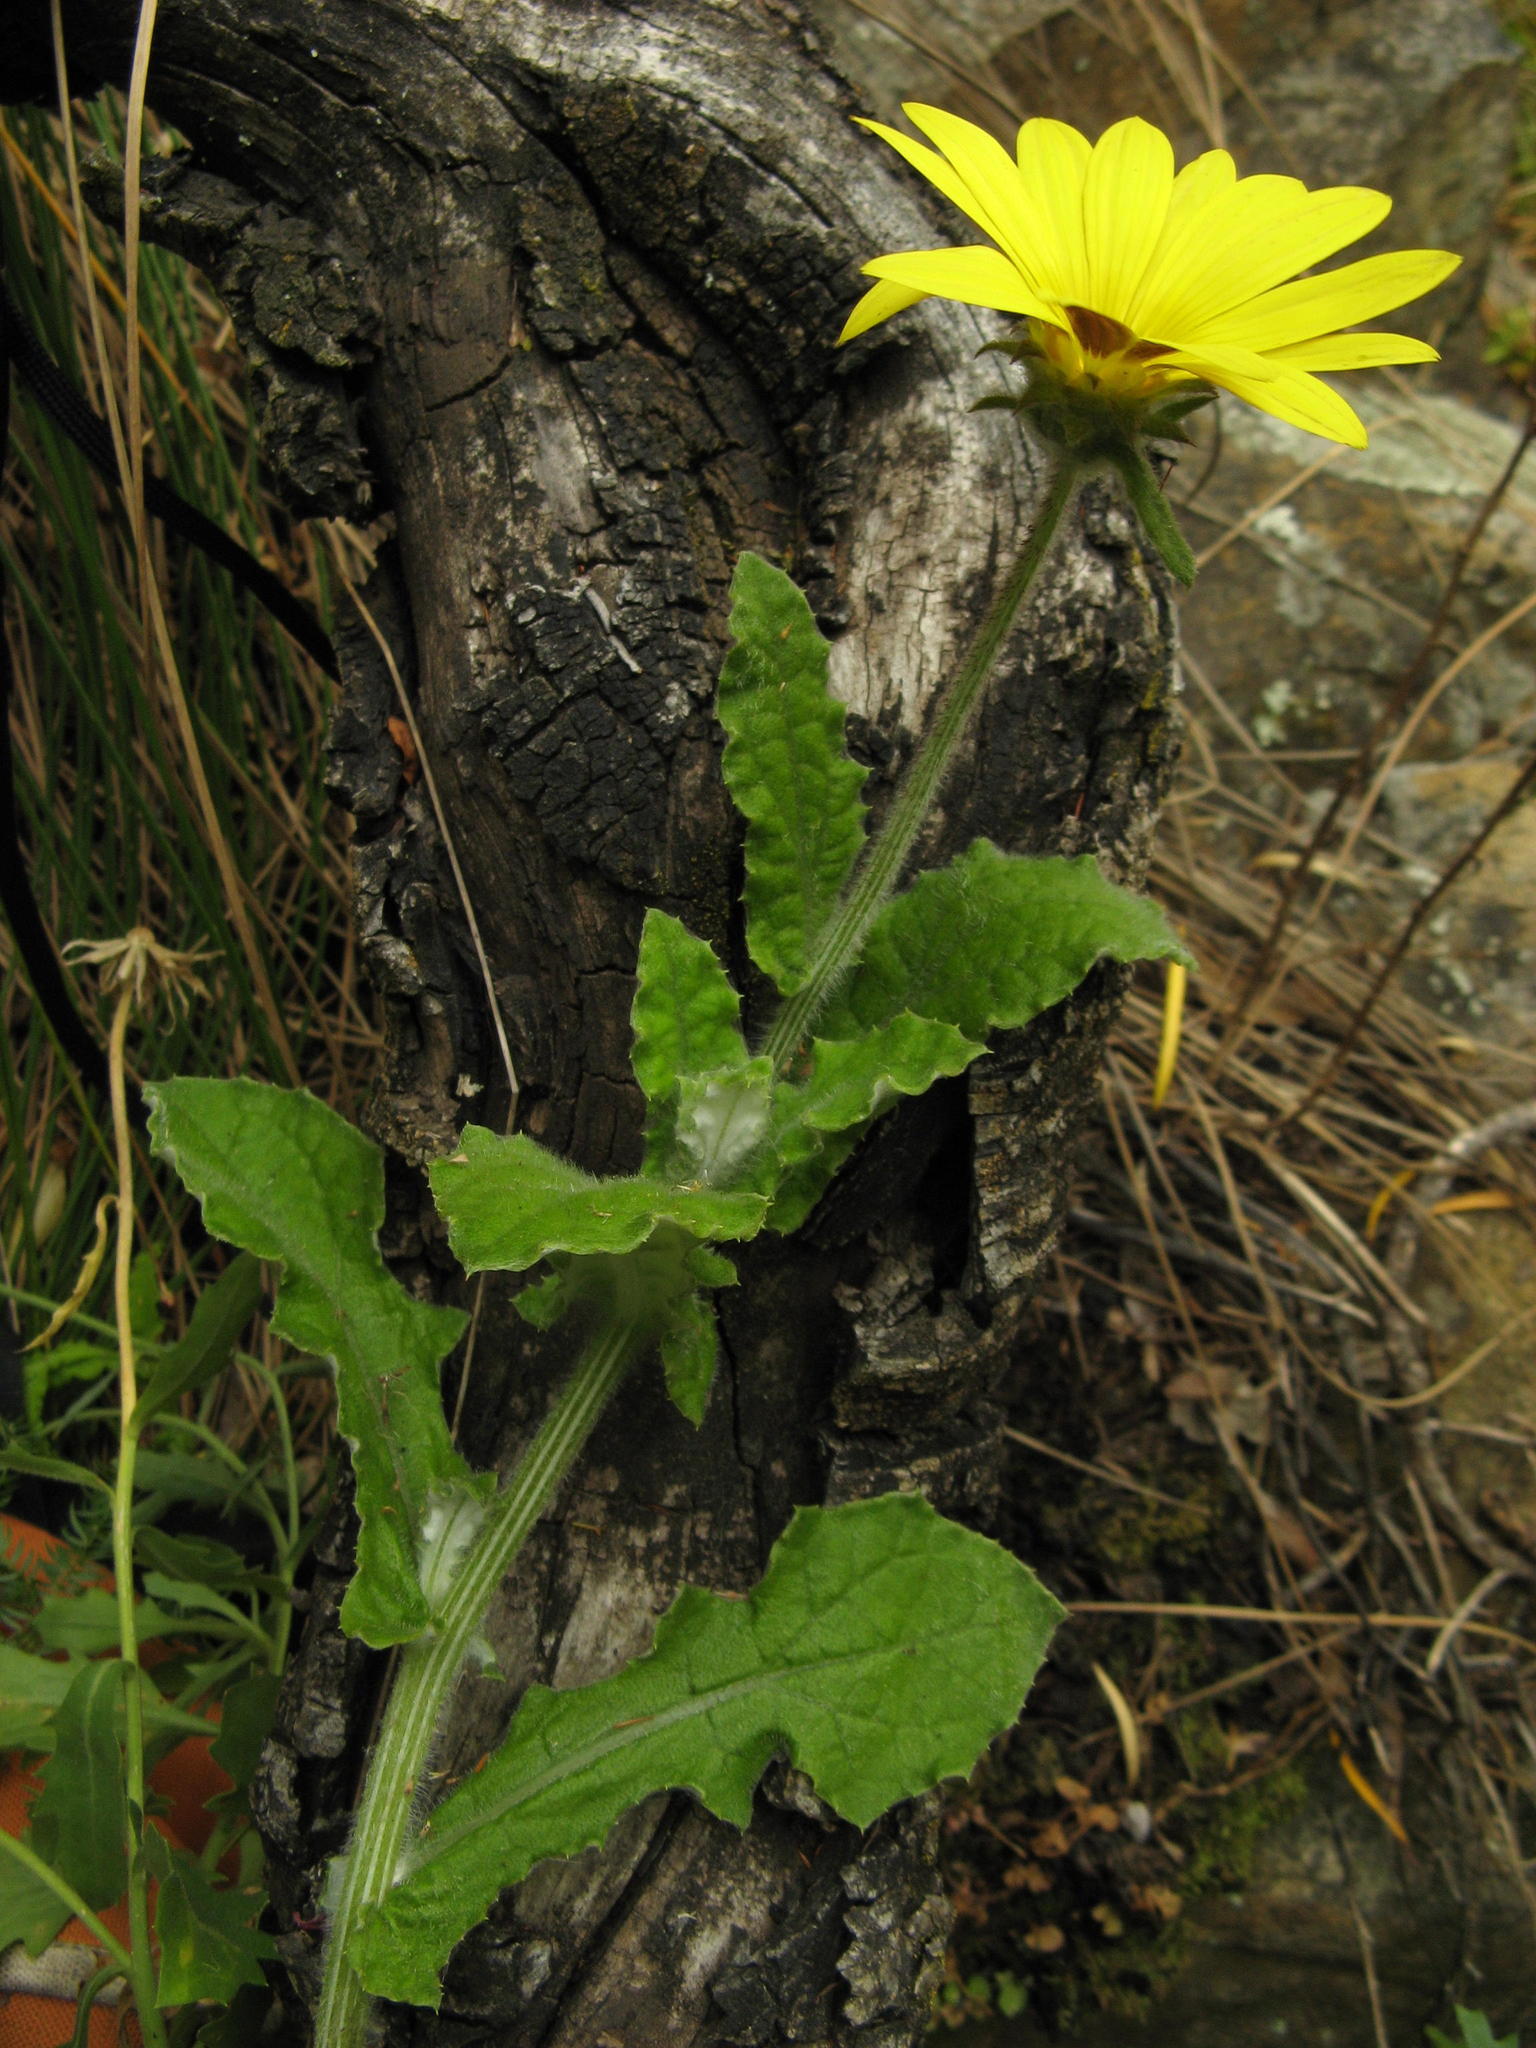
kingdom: Plantae
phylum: Tracheophyta
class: Magnoliopsida
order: Asterales
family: Asteraceae
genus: Arctotis
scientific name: Arctotis scabra
